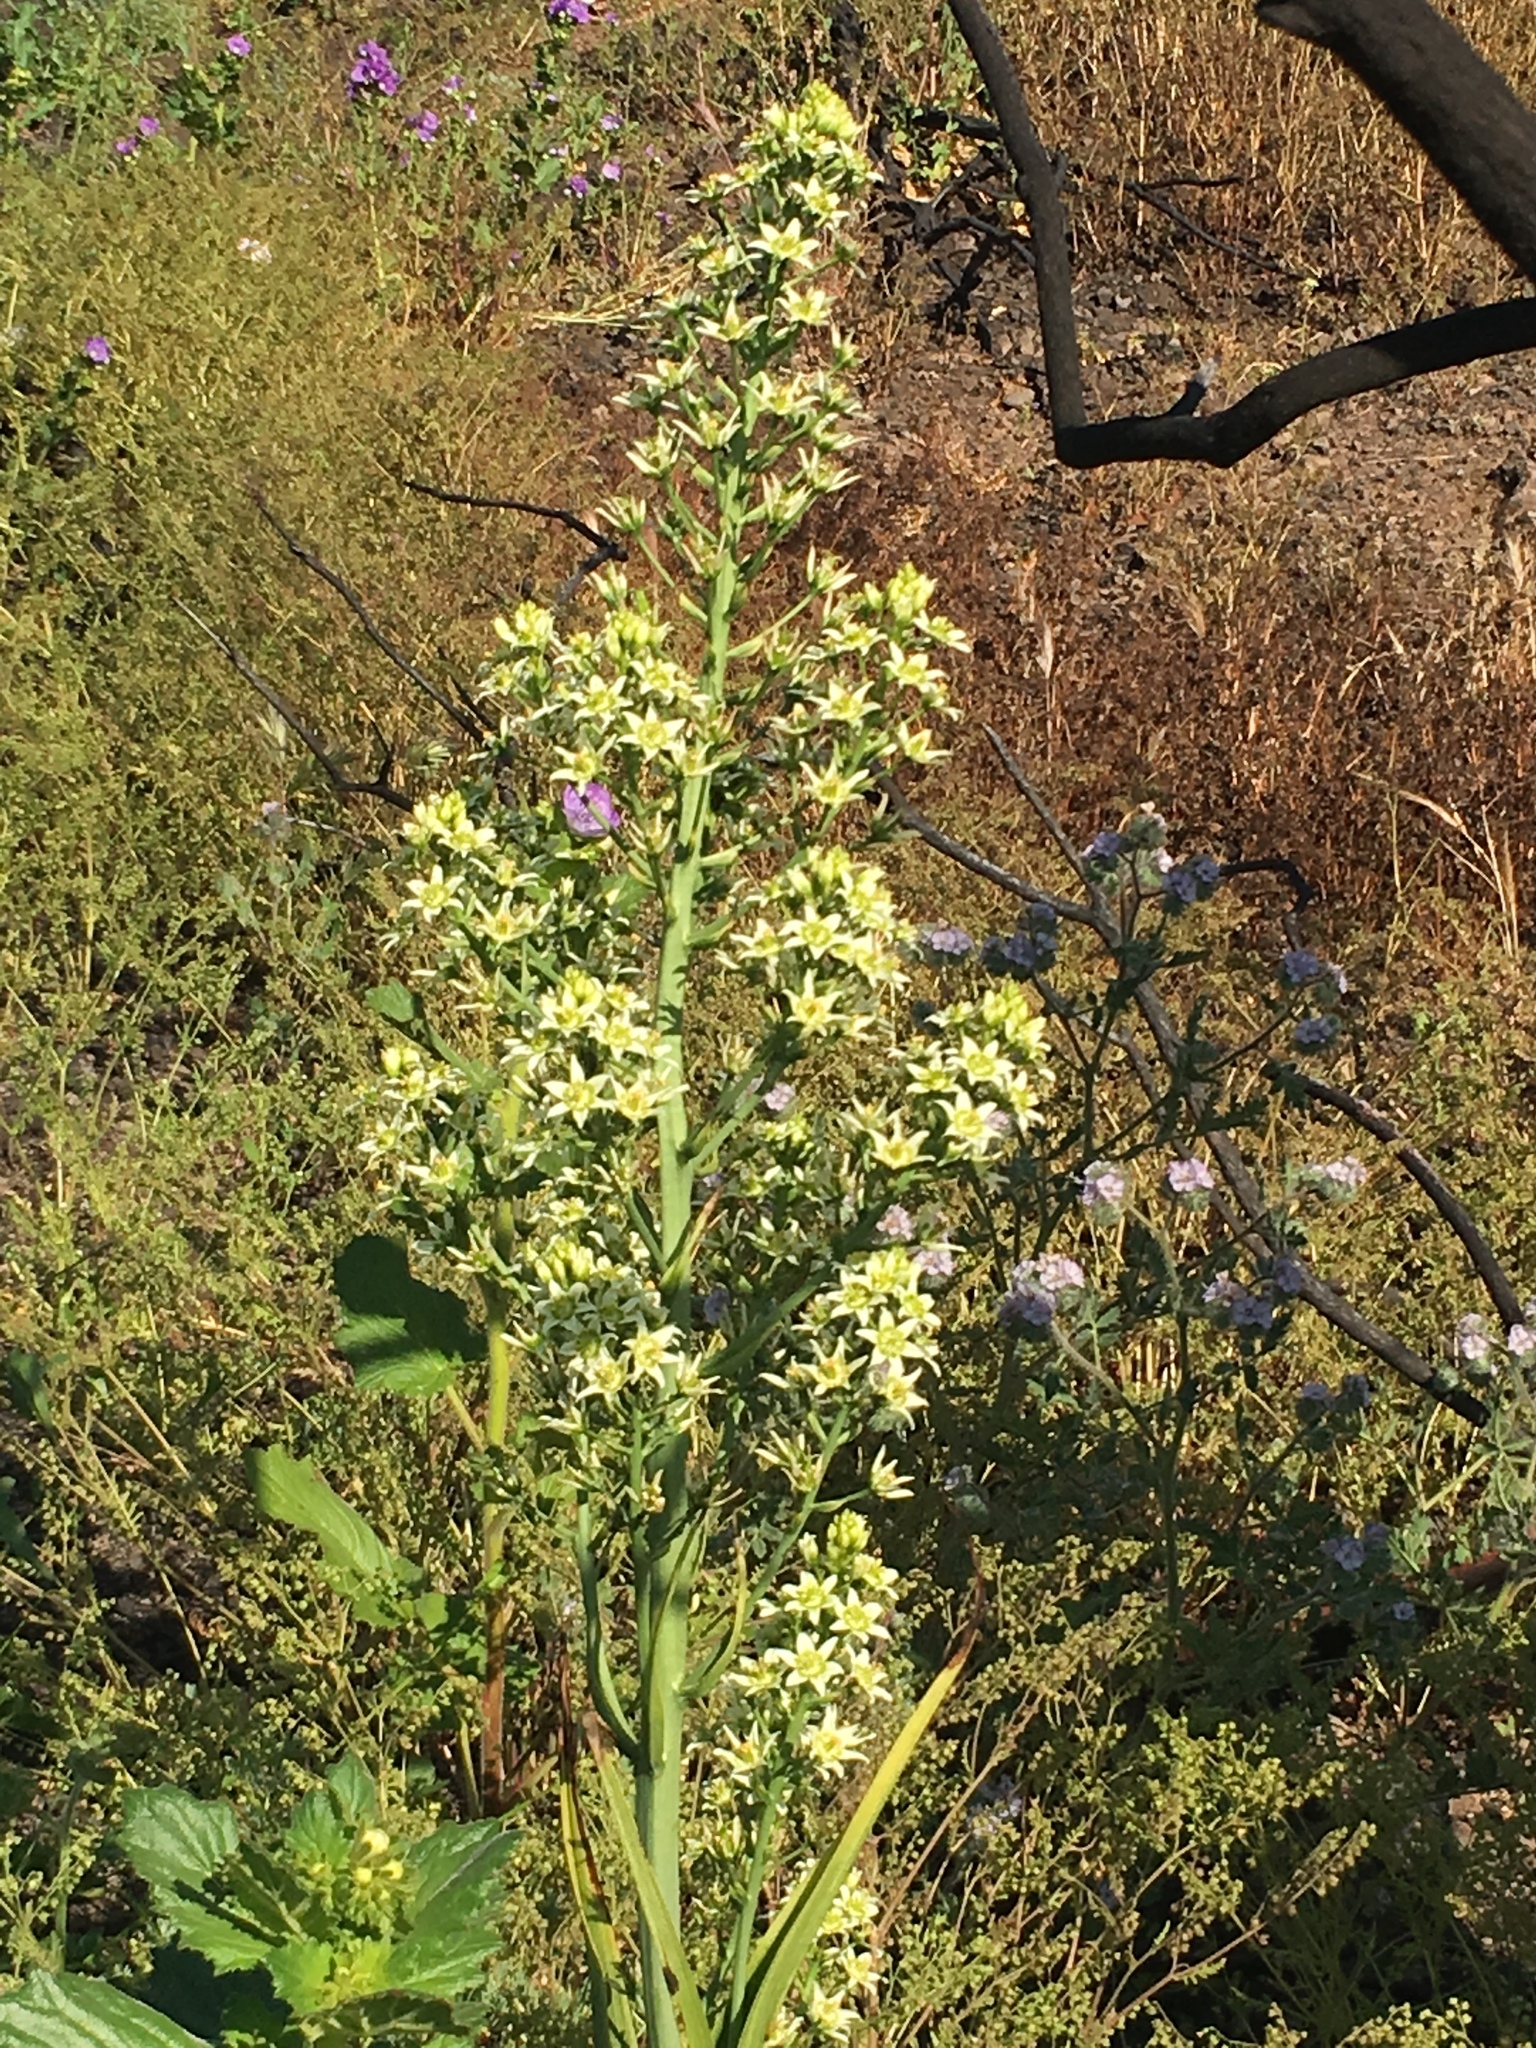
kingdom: Plantae
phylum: Tracheophyta
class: Liliopsida
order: Liliales
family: Melanthiaceae
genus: Toxicoscordion
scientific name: Toxicoscordion fremontii
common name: Fremont's death camas
